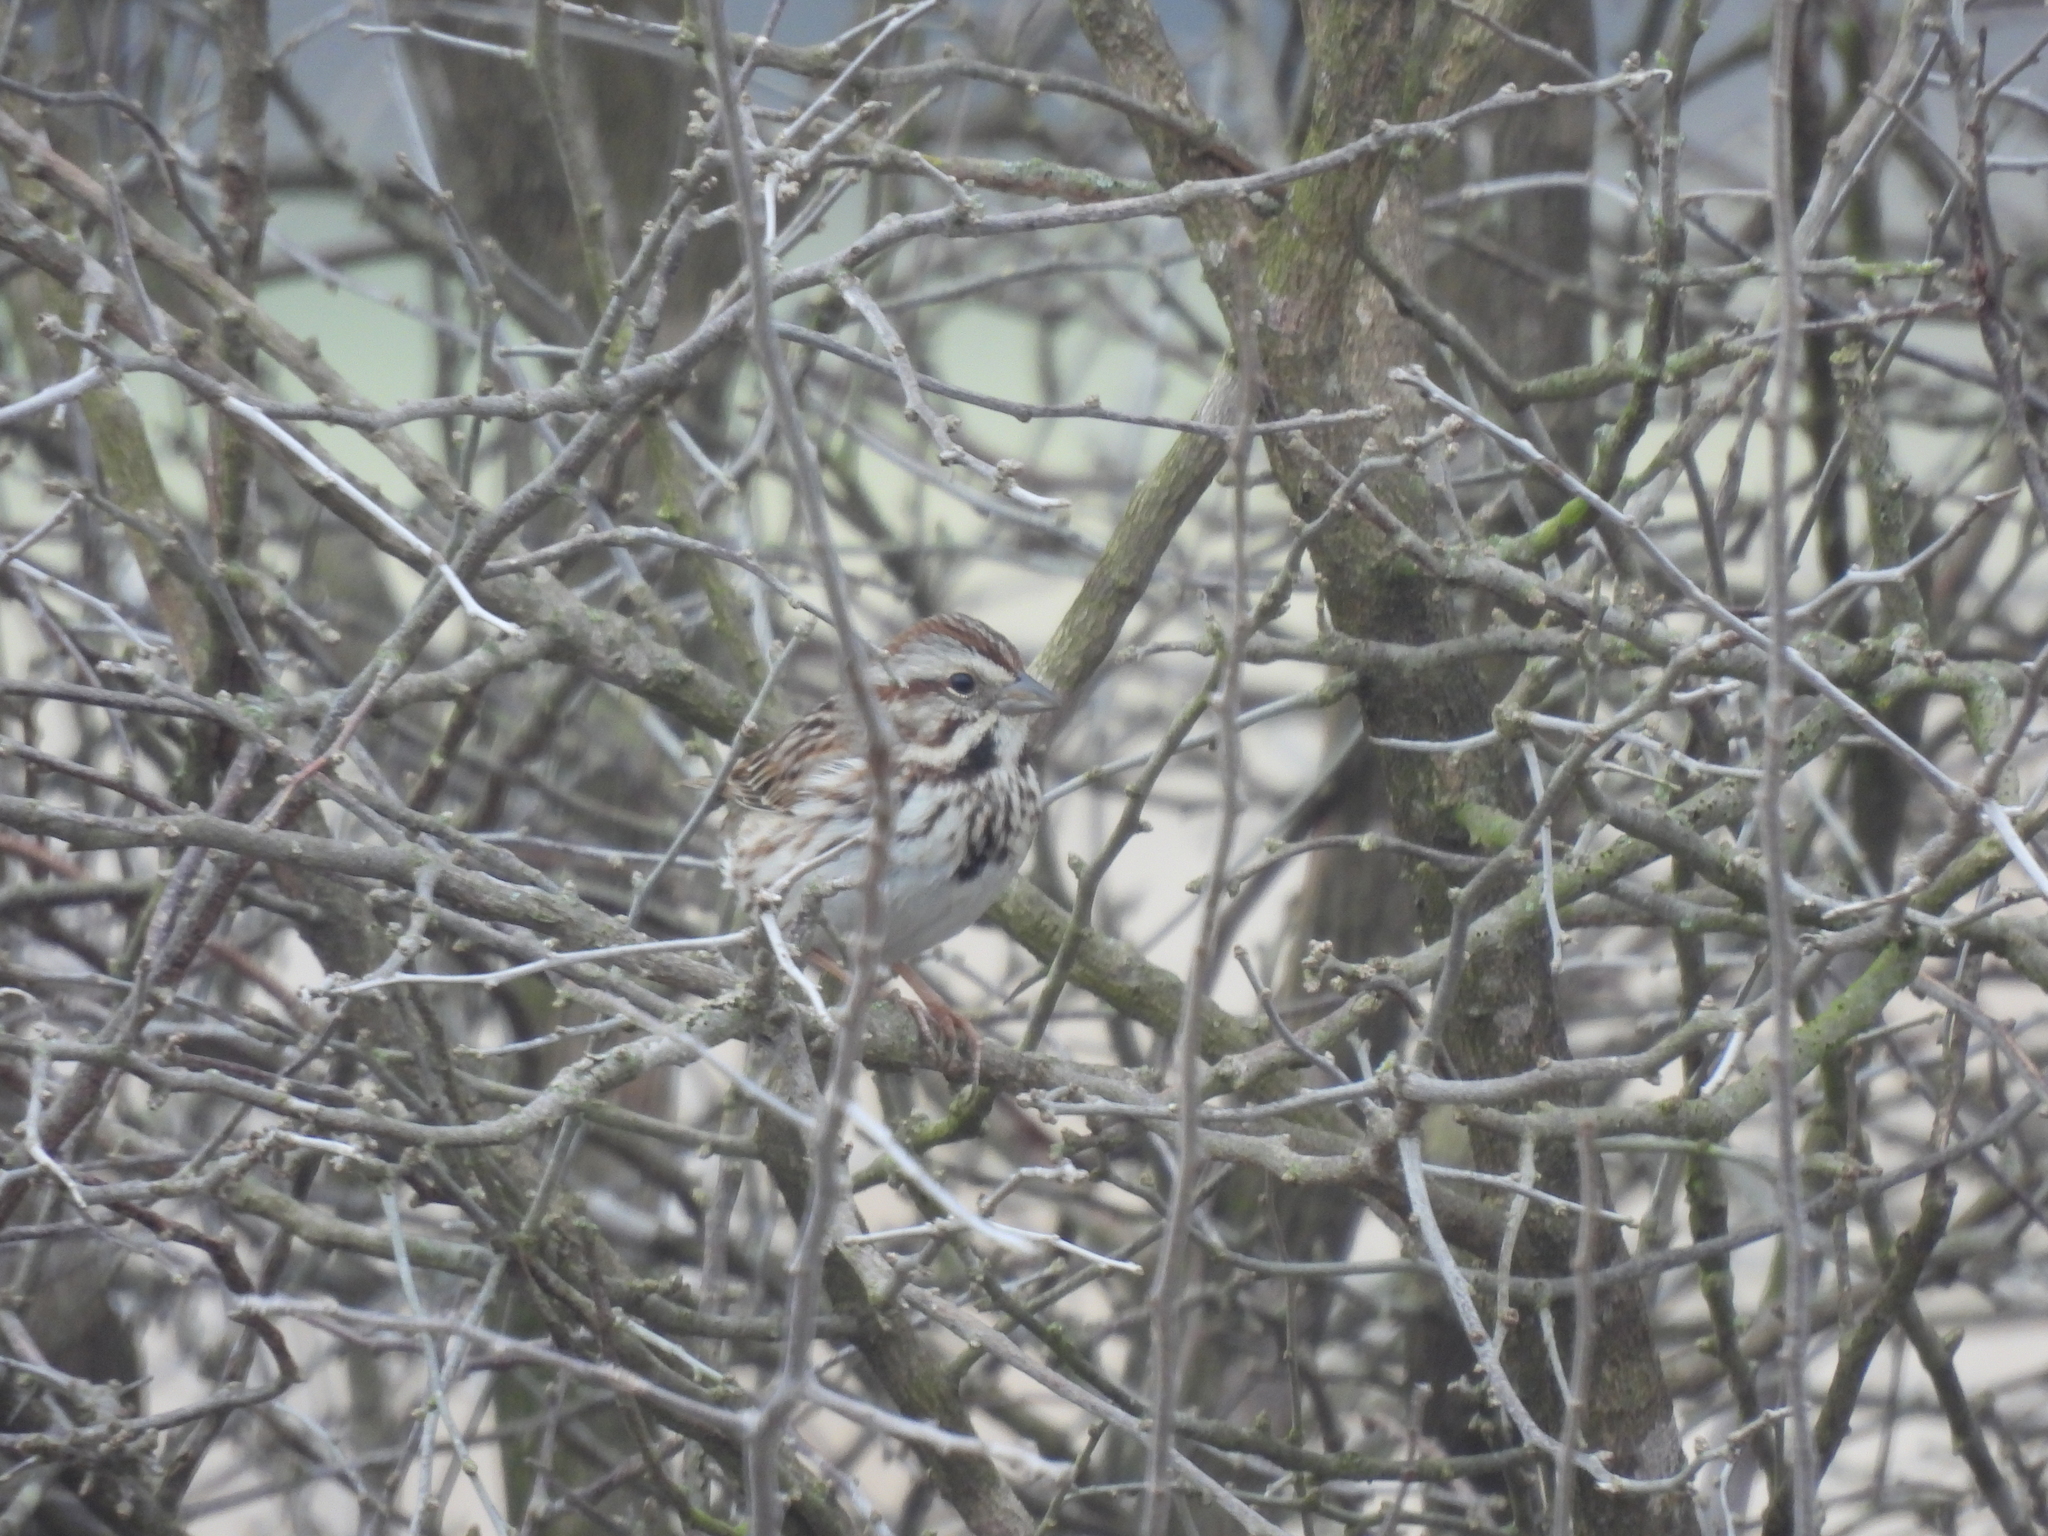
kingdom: Animalia
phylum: Chordata
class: Aves
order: Passeriformes
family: Passerellidae
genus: Melospiza
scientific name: Melospiza melodia
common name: Song sparrow
